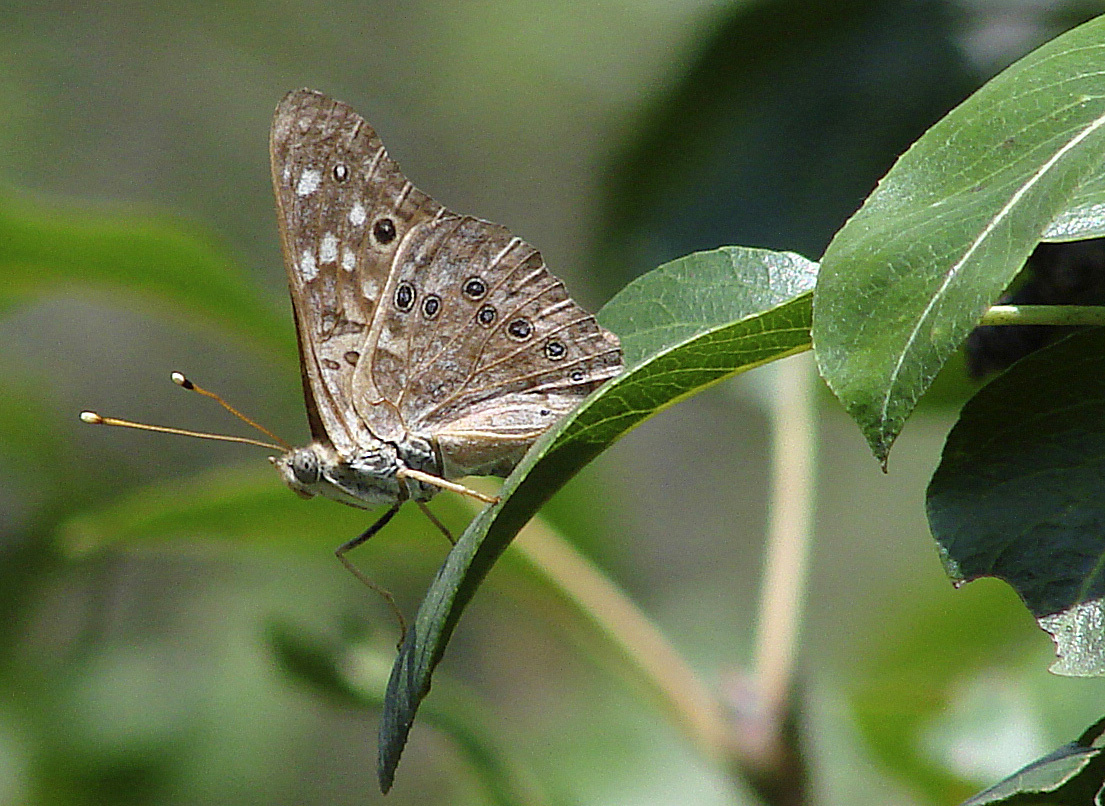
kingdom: Animalia
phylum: Arthropoda
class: Insecta
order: Lepidoptera
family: Nymphalidae
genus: Asterocampa
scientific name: Asterocampa celtis
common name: Hackberry emperor
